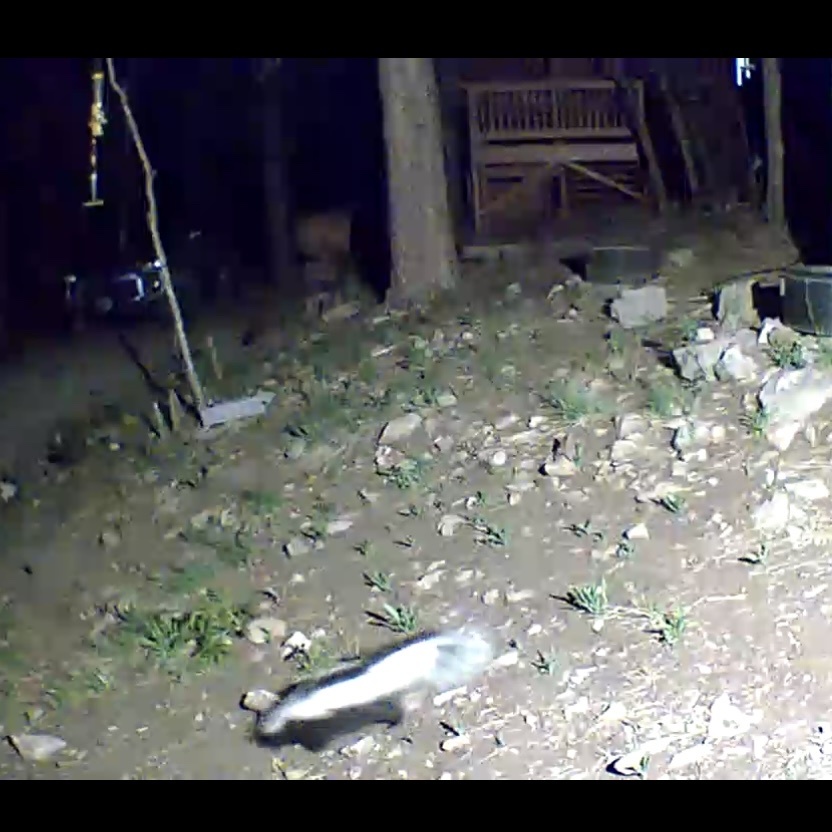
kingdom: Animalia
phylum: Chordata
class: Mammalia
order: Carnivora
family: Mephitidae
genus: Mephitis
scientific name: Mephitis mephitis
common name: Striped skunk
